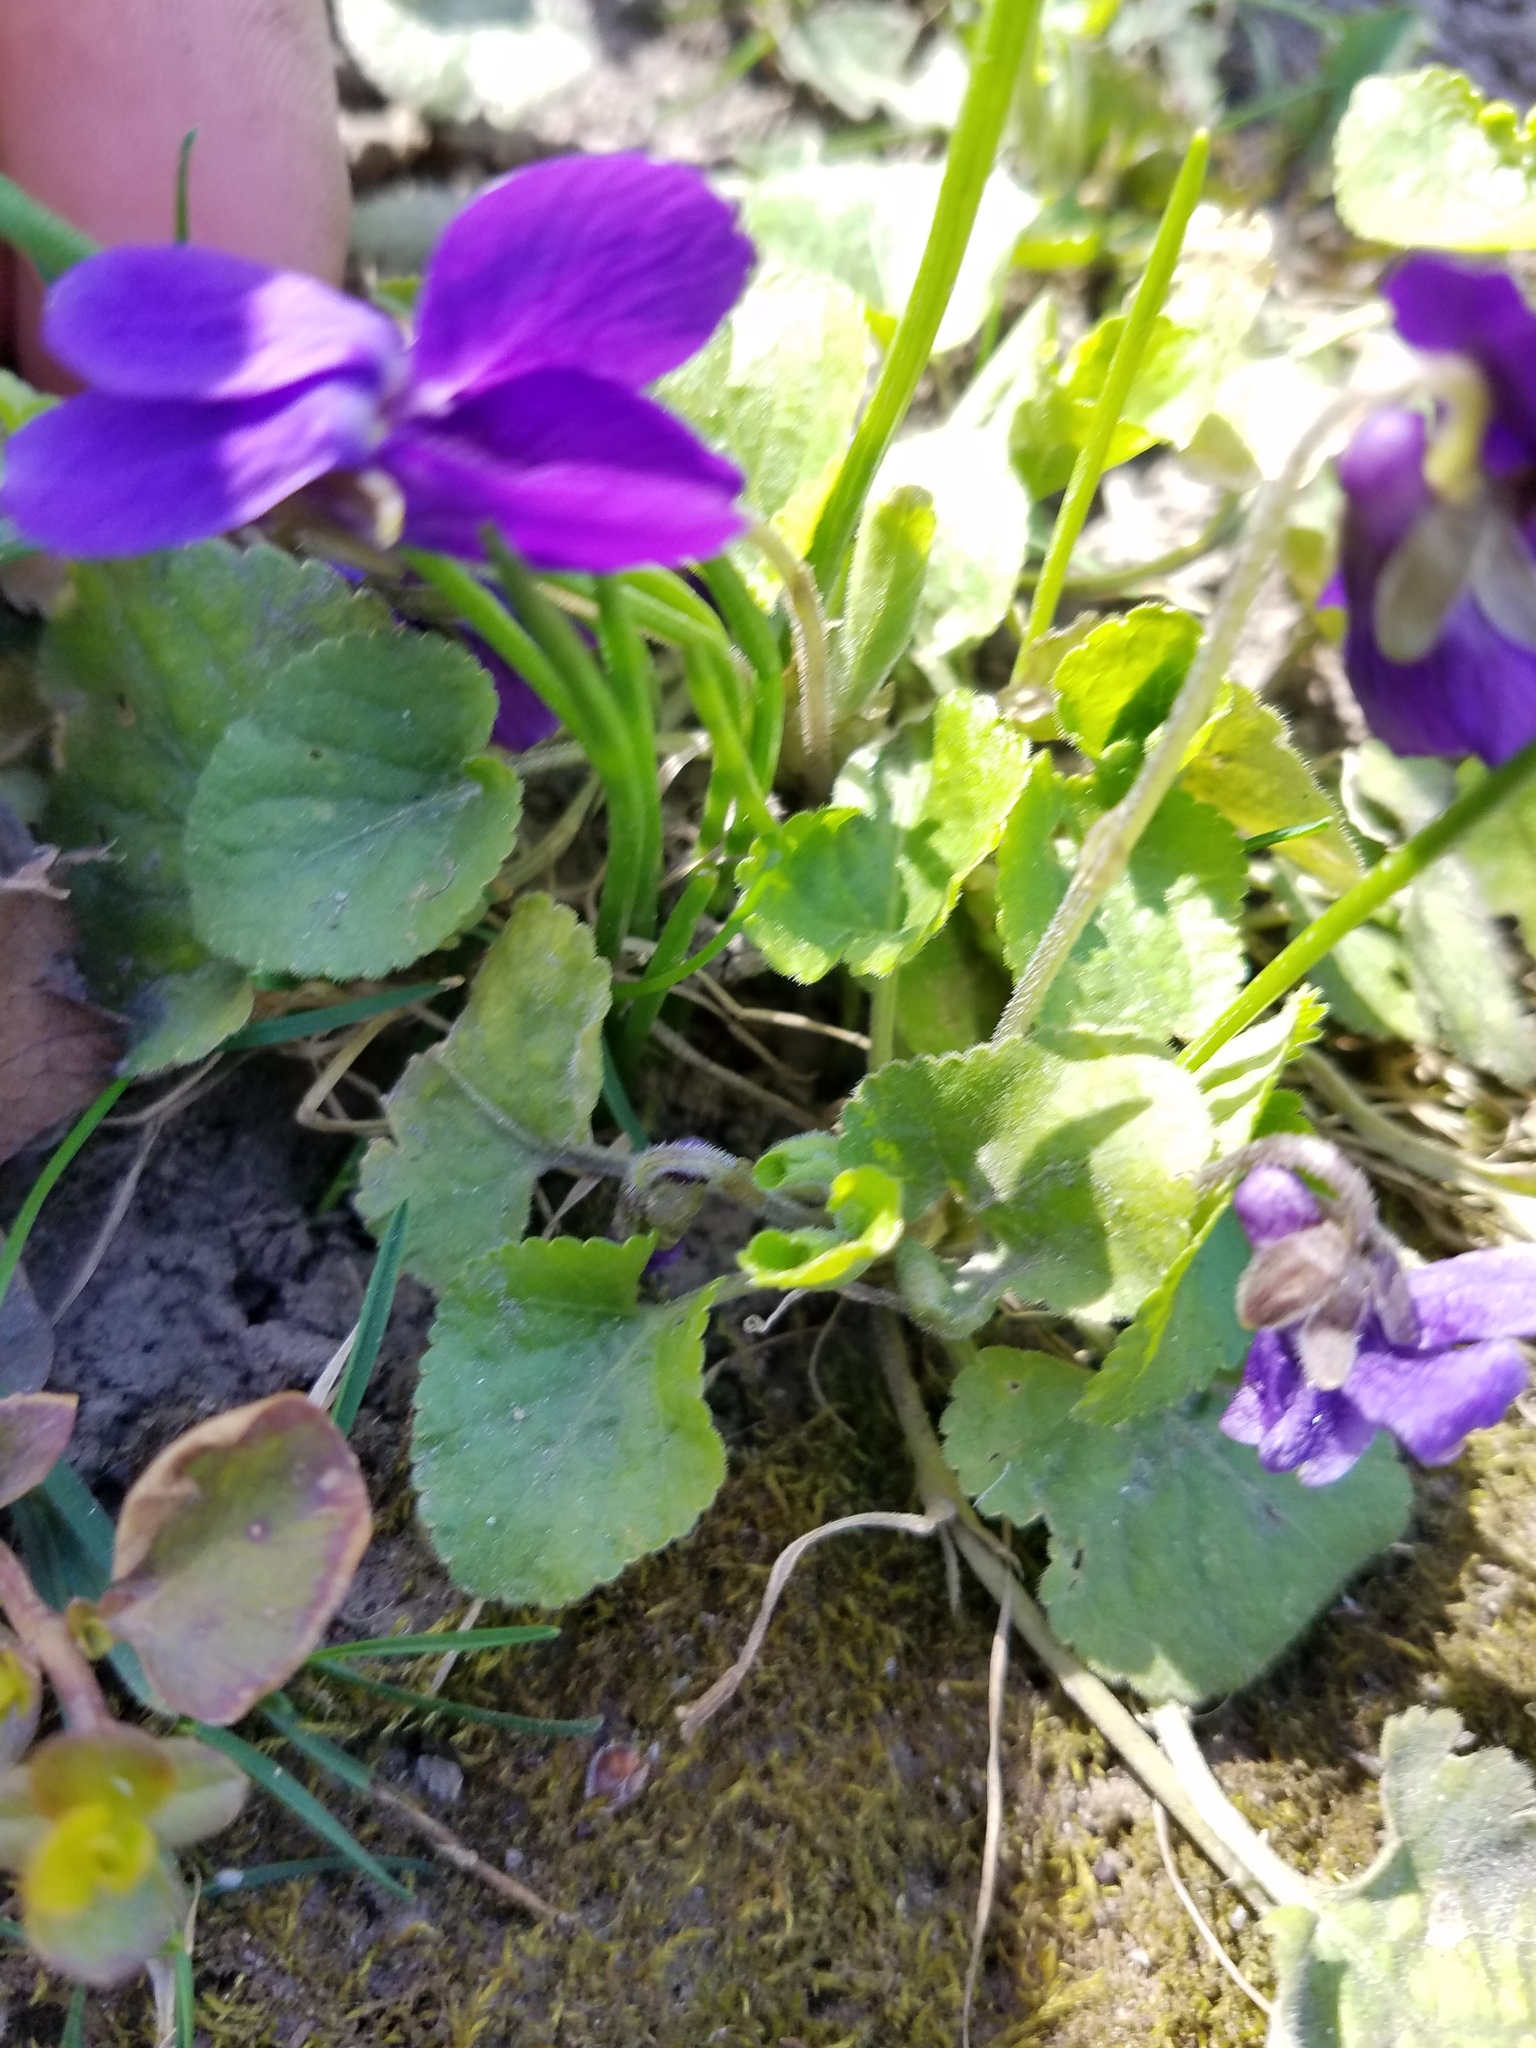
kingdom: Plantae
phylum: Tracheophyta
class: Magnoliopsida
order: Malpighiales
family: Violaceae
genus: Viola
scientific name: Viola odorata
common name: Sweet violet
